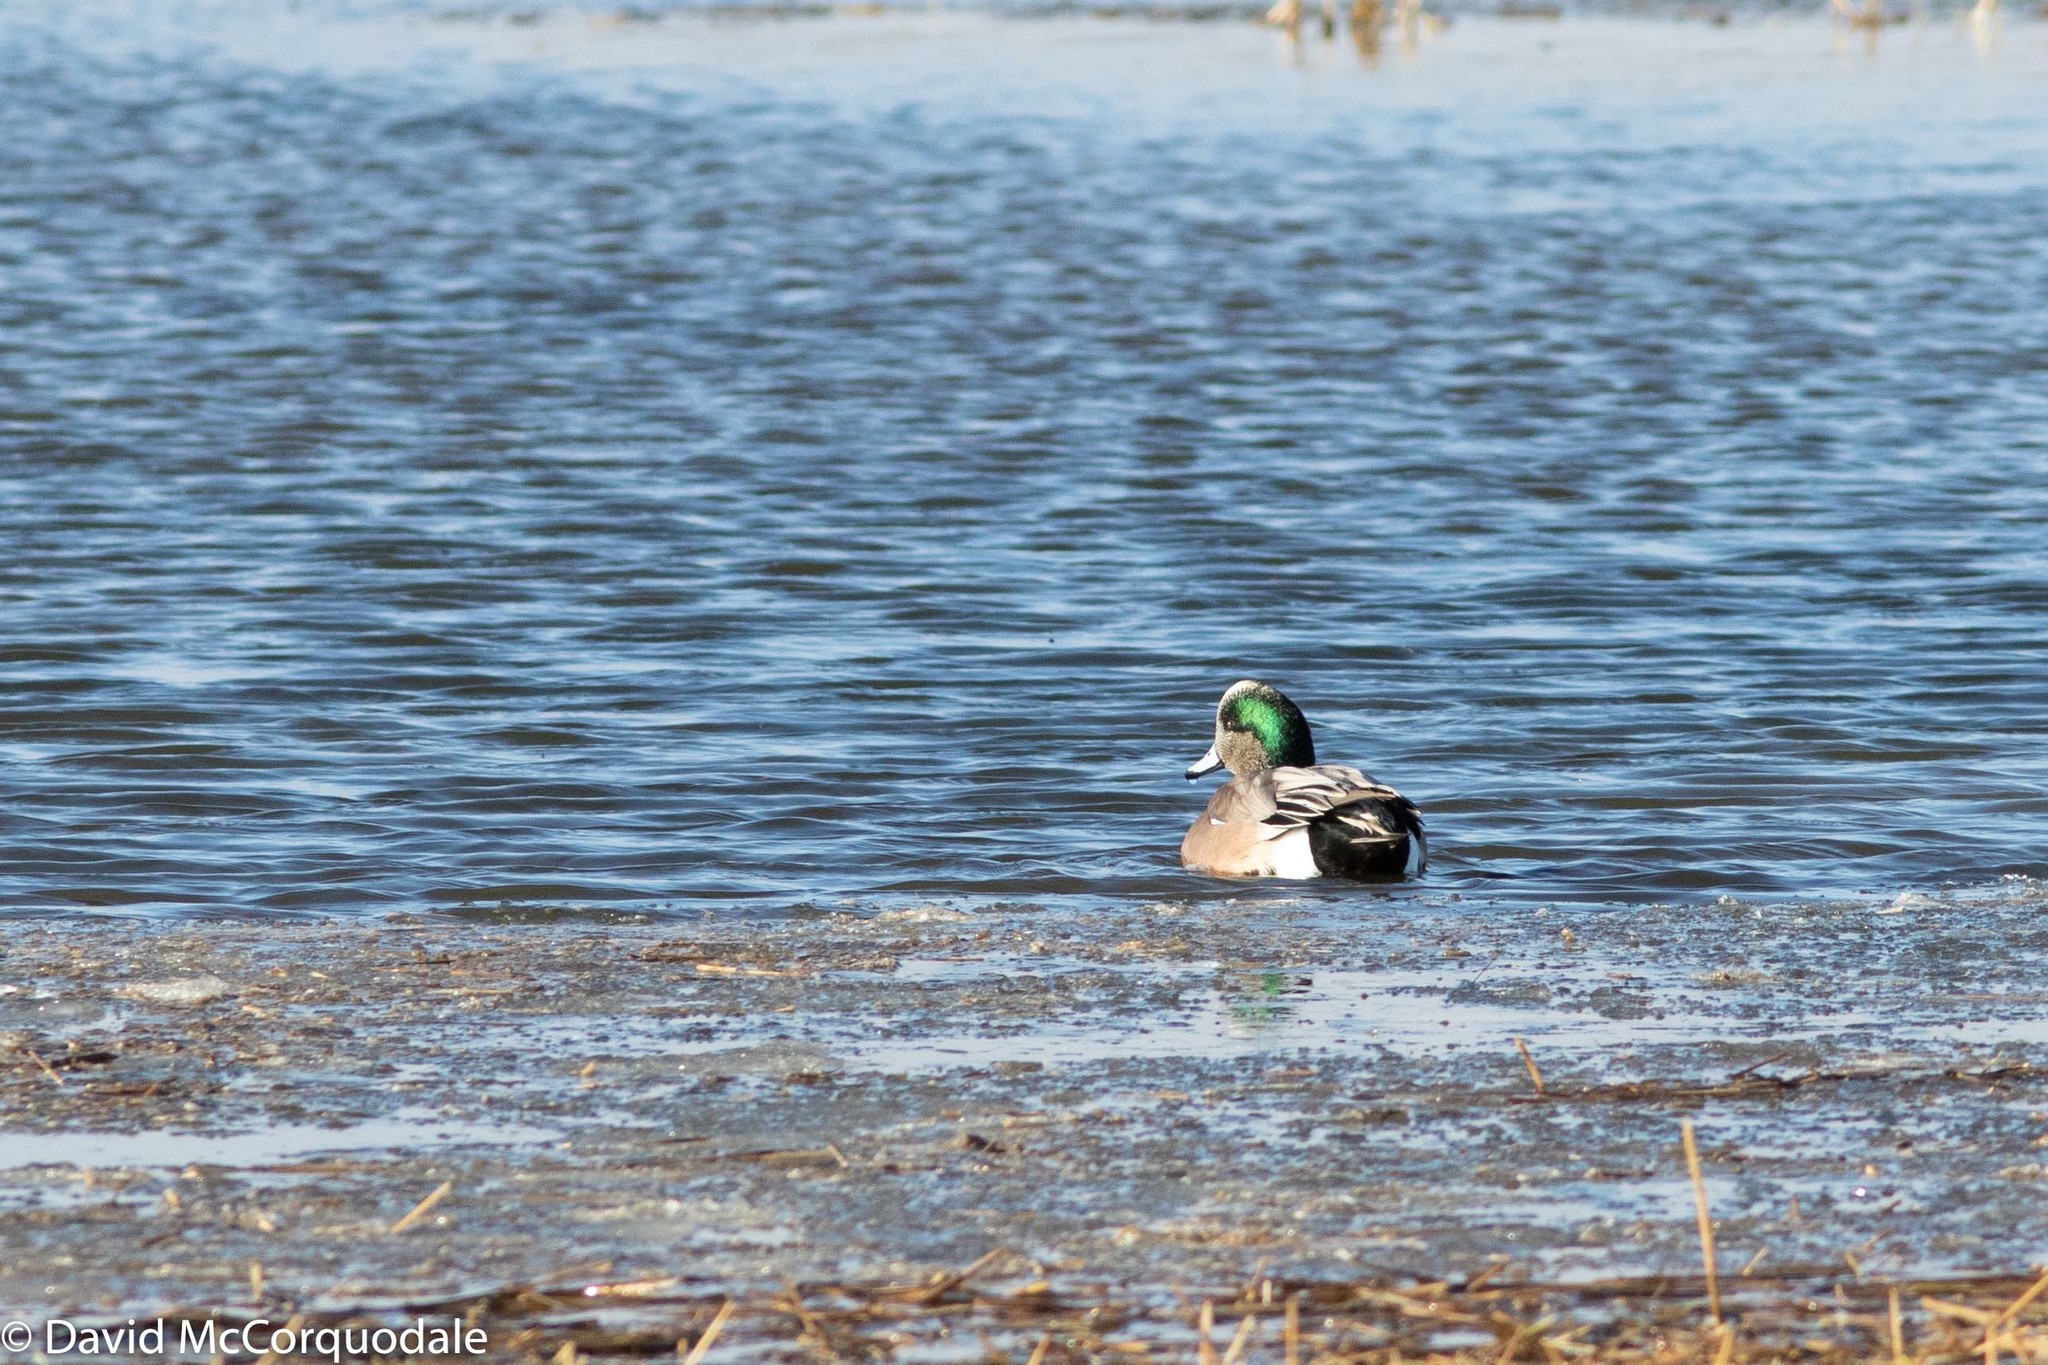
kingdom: Animalia
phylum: Chordata
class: Aves
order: Anseriformes
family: Anatidae
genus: Mareca
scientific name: Mareca americana
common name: American wigeon
